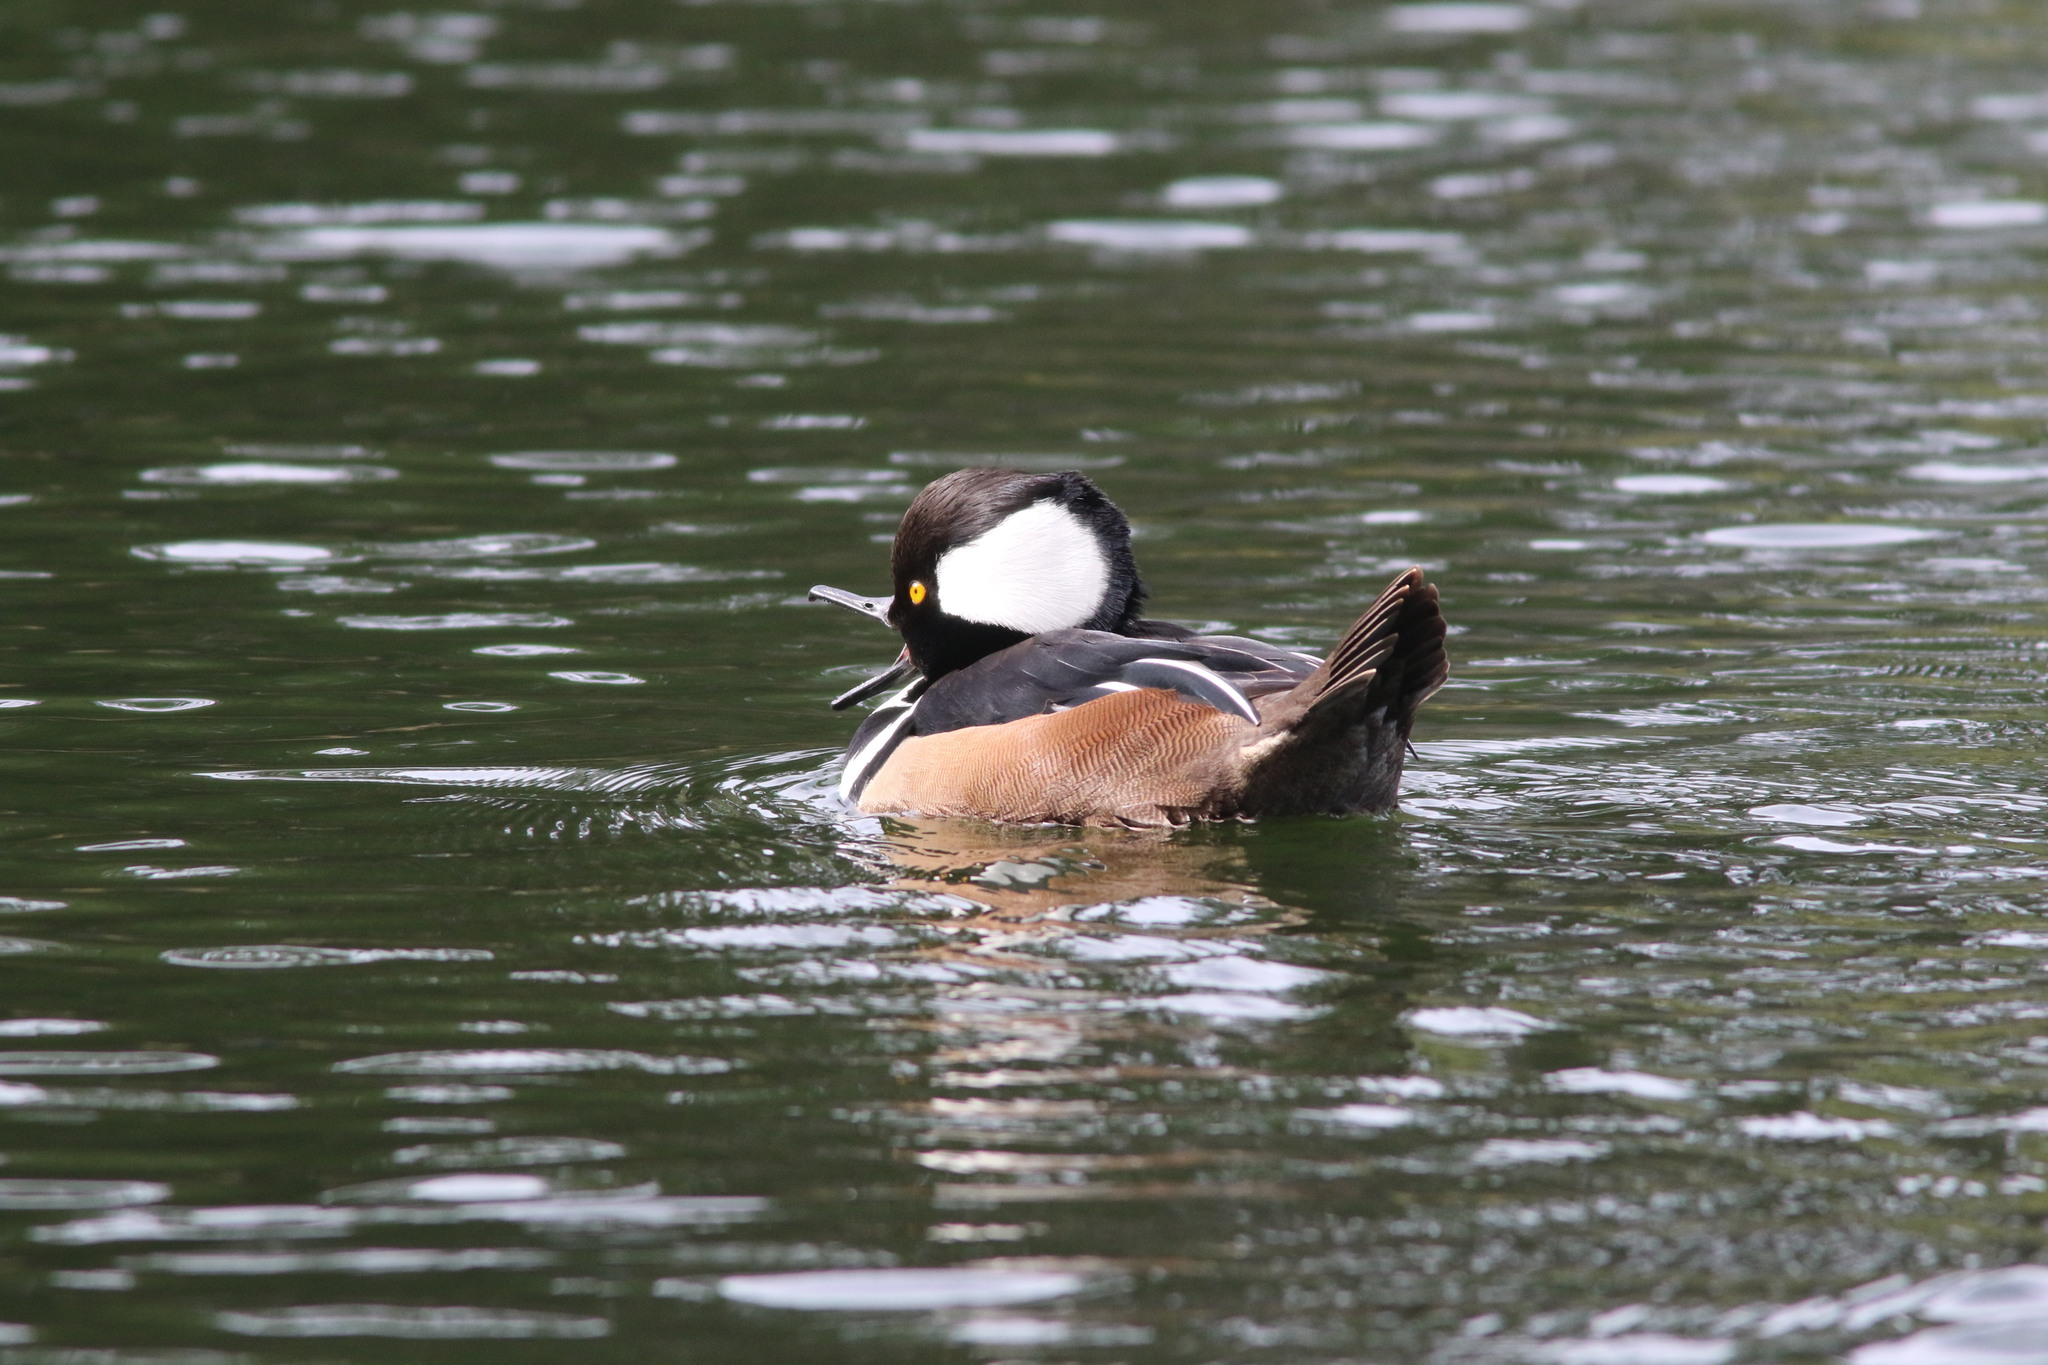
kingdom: Animalia
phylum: Chordata
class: Aves
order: Anseriformes
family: Anatidae
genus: Lophodytes
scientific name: Lophodytes cucullatus
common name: Hooded merganser
